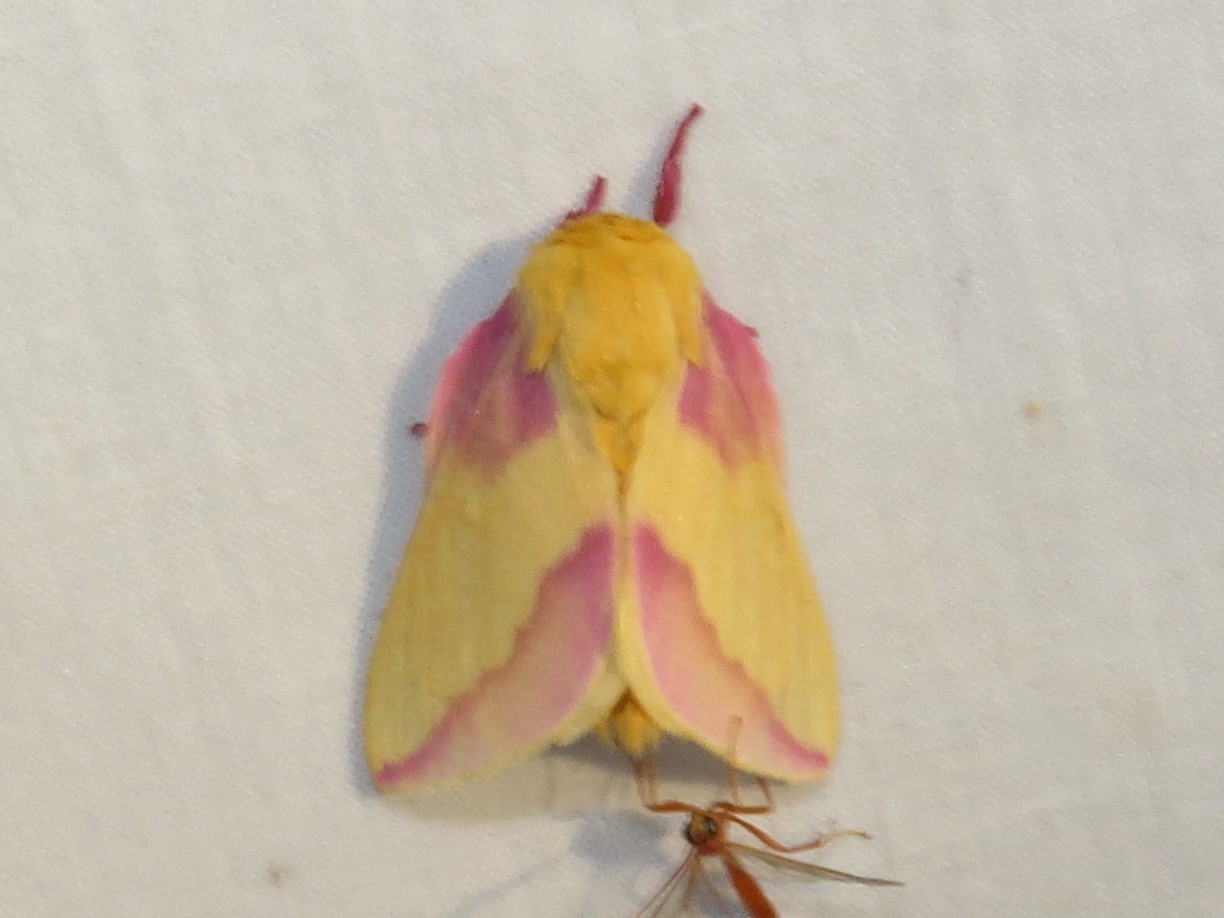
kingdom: Animalia
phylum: Arthropoda
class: Insecta
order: Lepidoptera
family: Saturniidae
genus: Dryocampa
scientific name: Dryocampa rubicunda
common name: Rosy maple moth
